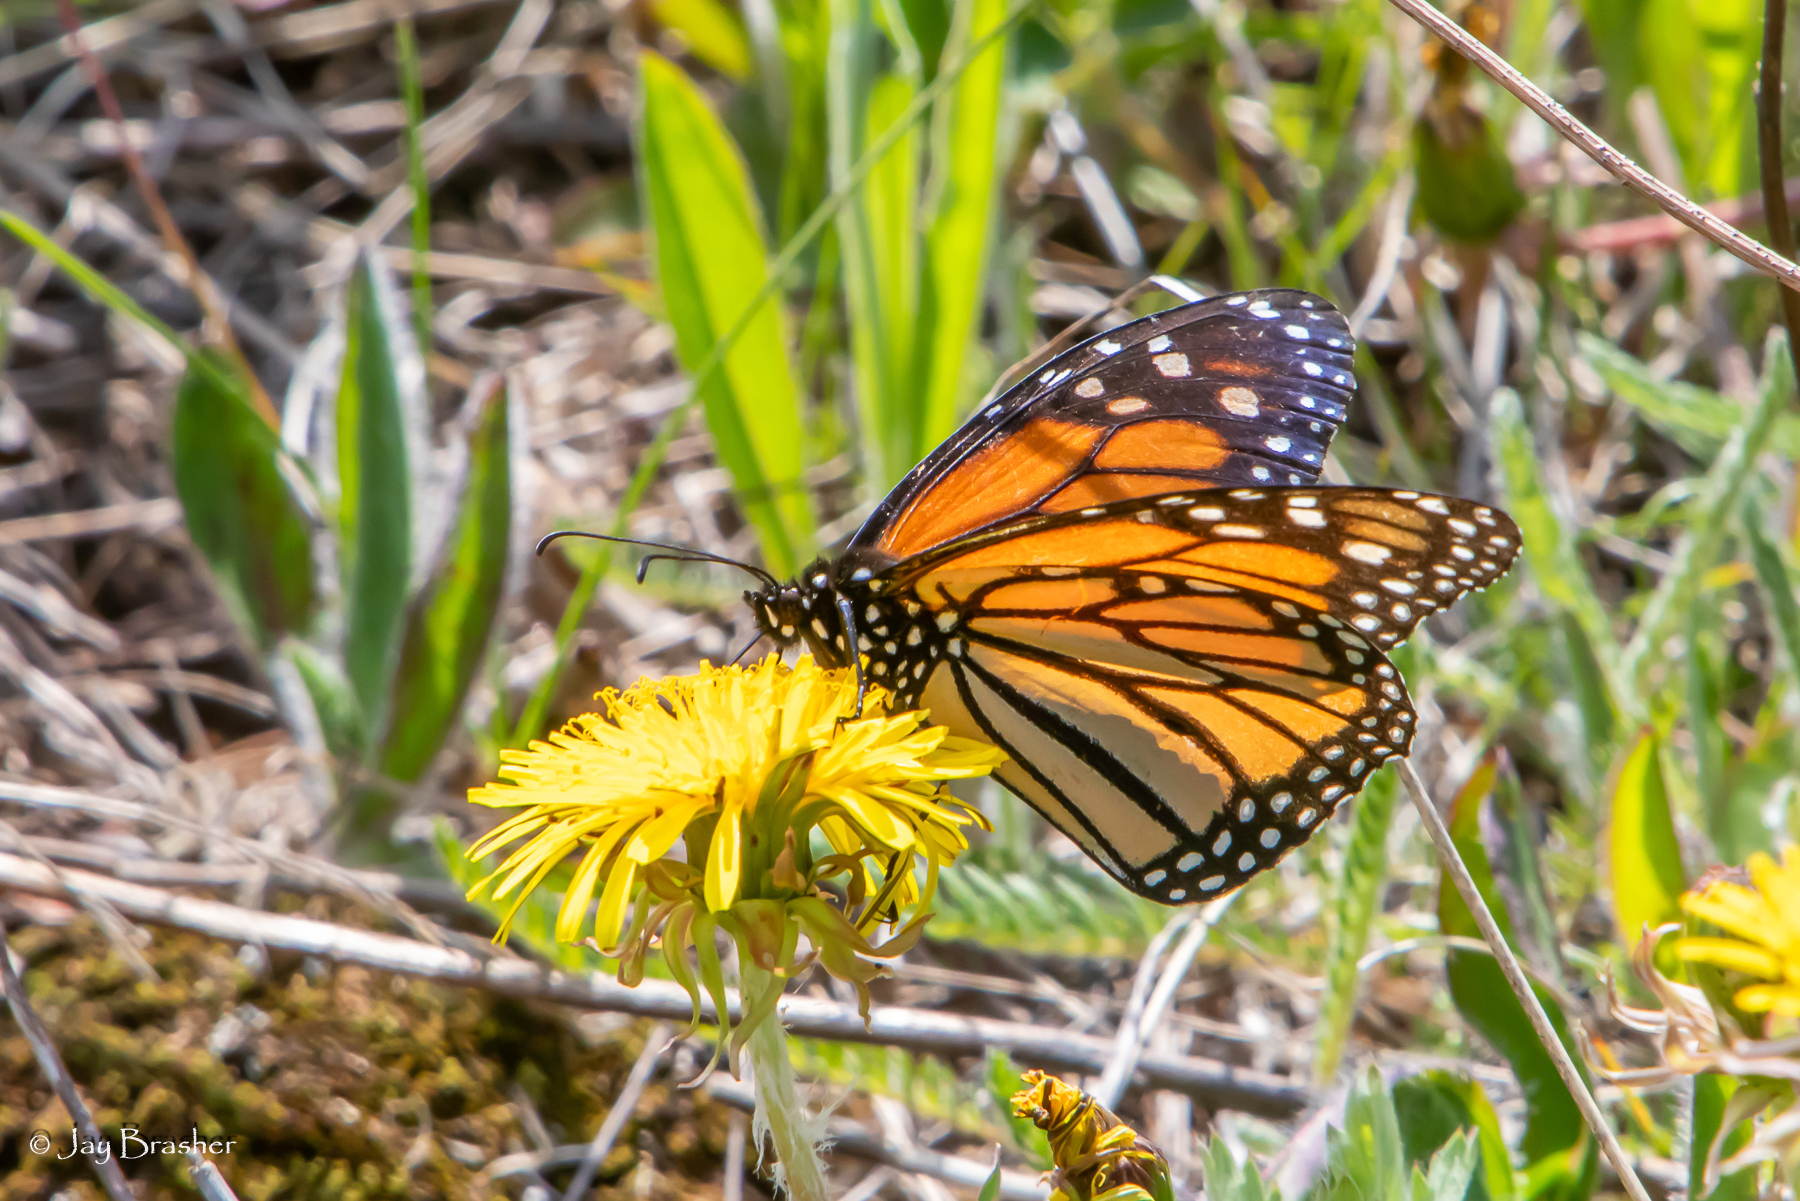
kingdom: Animalia
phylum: Arthropoda
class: Insecta
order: Lepidoptera
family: Nymphalidae
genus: Danaus
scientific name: Danaus plexippus
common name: Monarch
